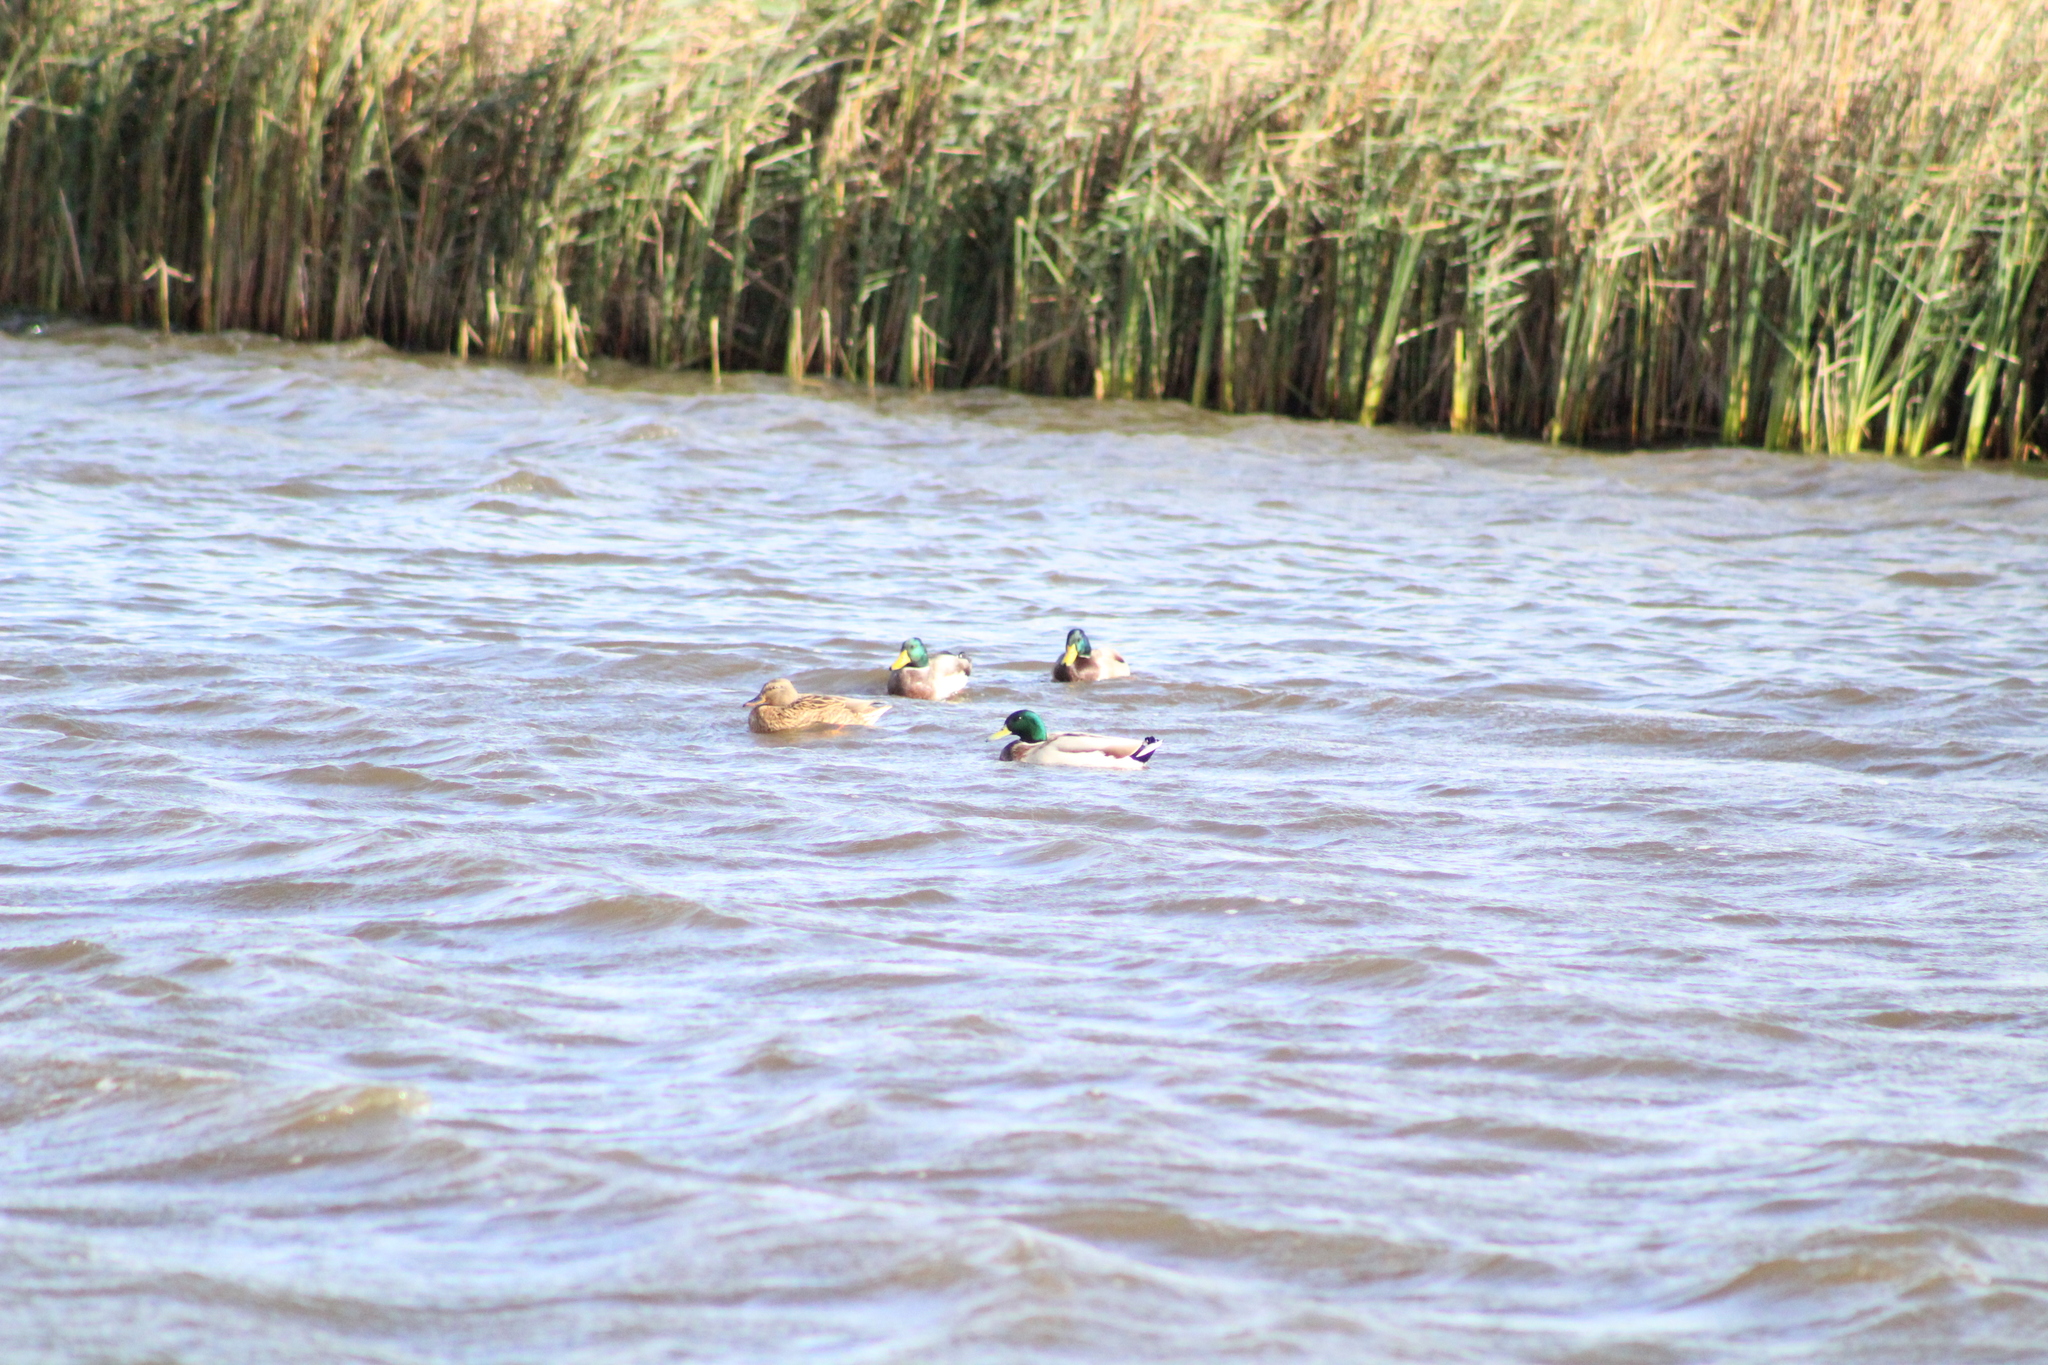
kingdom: Animalia
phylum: Chordata
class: Aves
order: Anseriformes
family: Anatidae
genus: Anas
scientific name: Anas platyrhynchos
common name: Mallard
